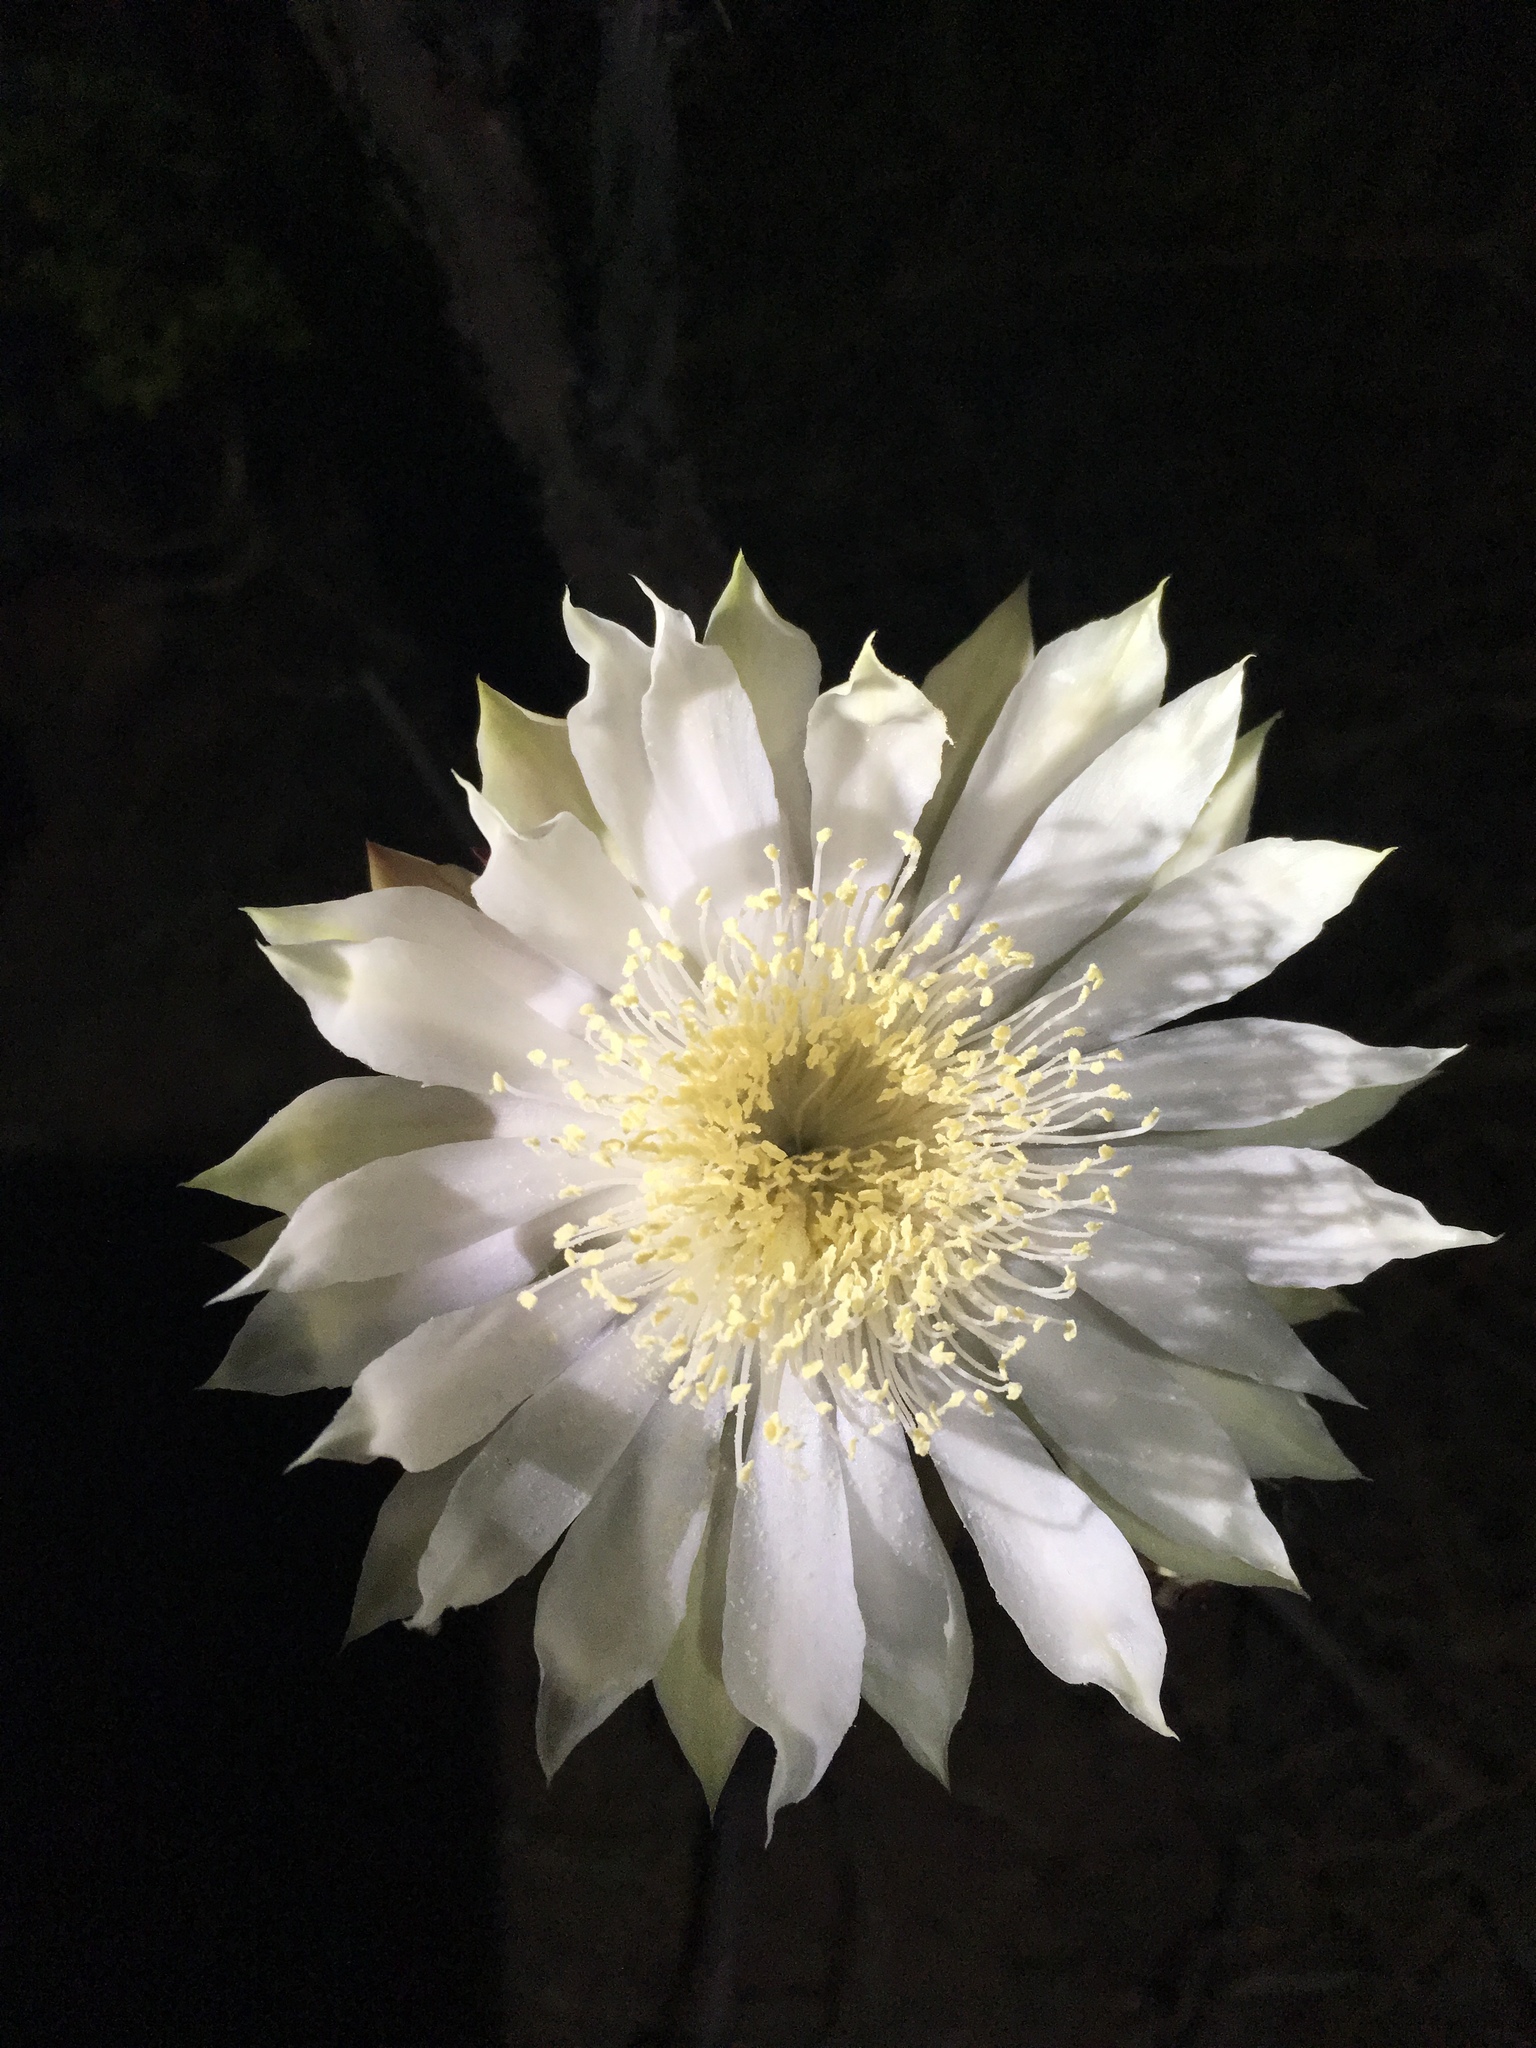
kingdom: Plantae
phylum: Tracheophyta
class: Magnoliopsida
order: Caryophyllales
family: Cactaceae
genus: Peniocereus
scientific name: Peniocereus greggii
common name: Desert night-blooming cereus
